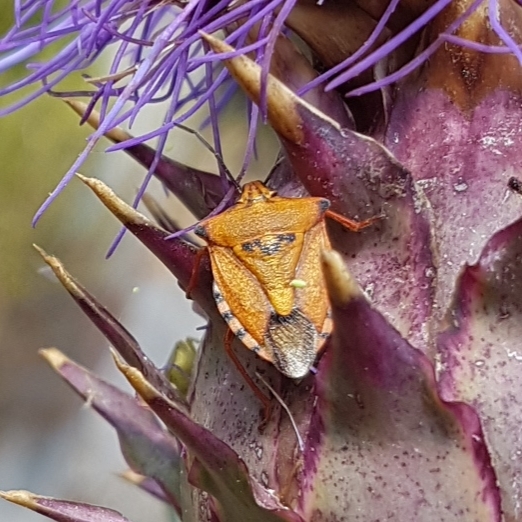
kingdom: Animalia
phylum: Arthropoda
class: Insecta
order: Hemiptera
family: Pentatomidae
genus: Carpocoris
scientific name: Carpocoris mediterraneus
